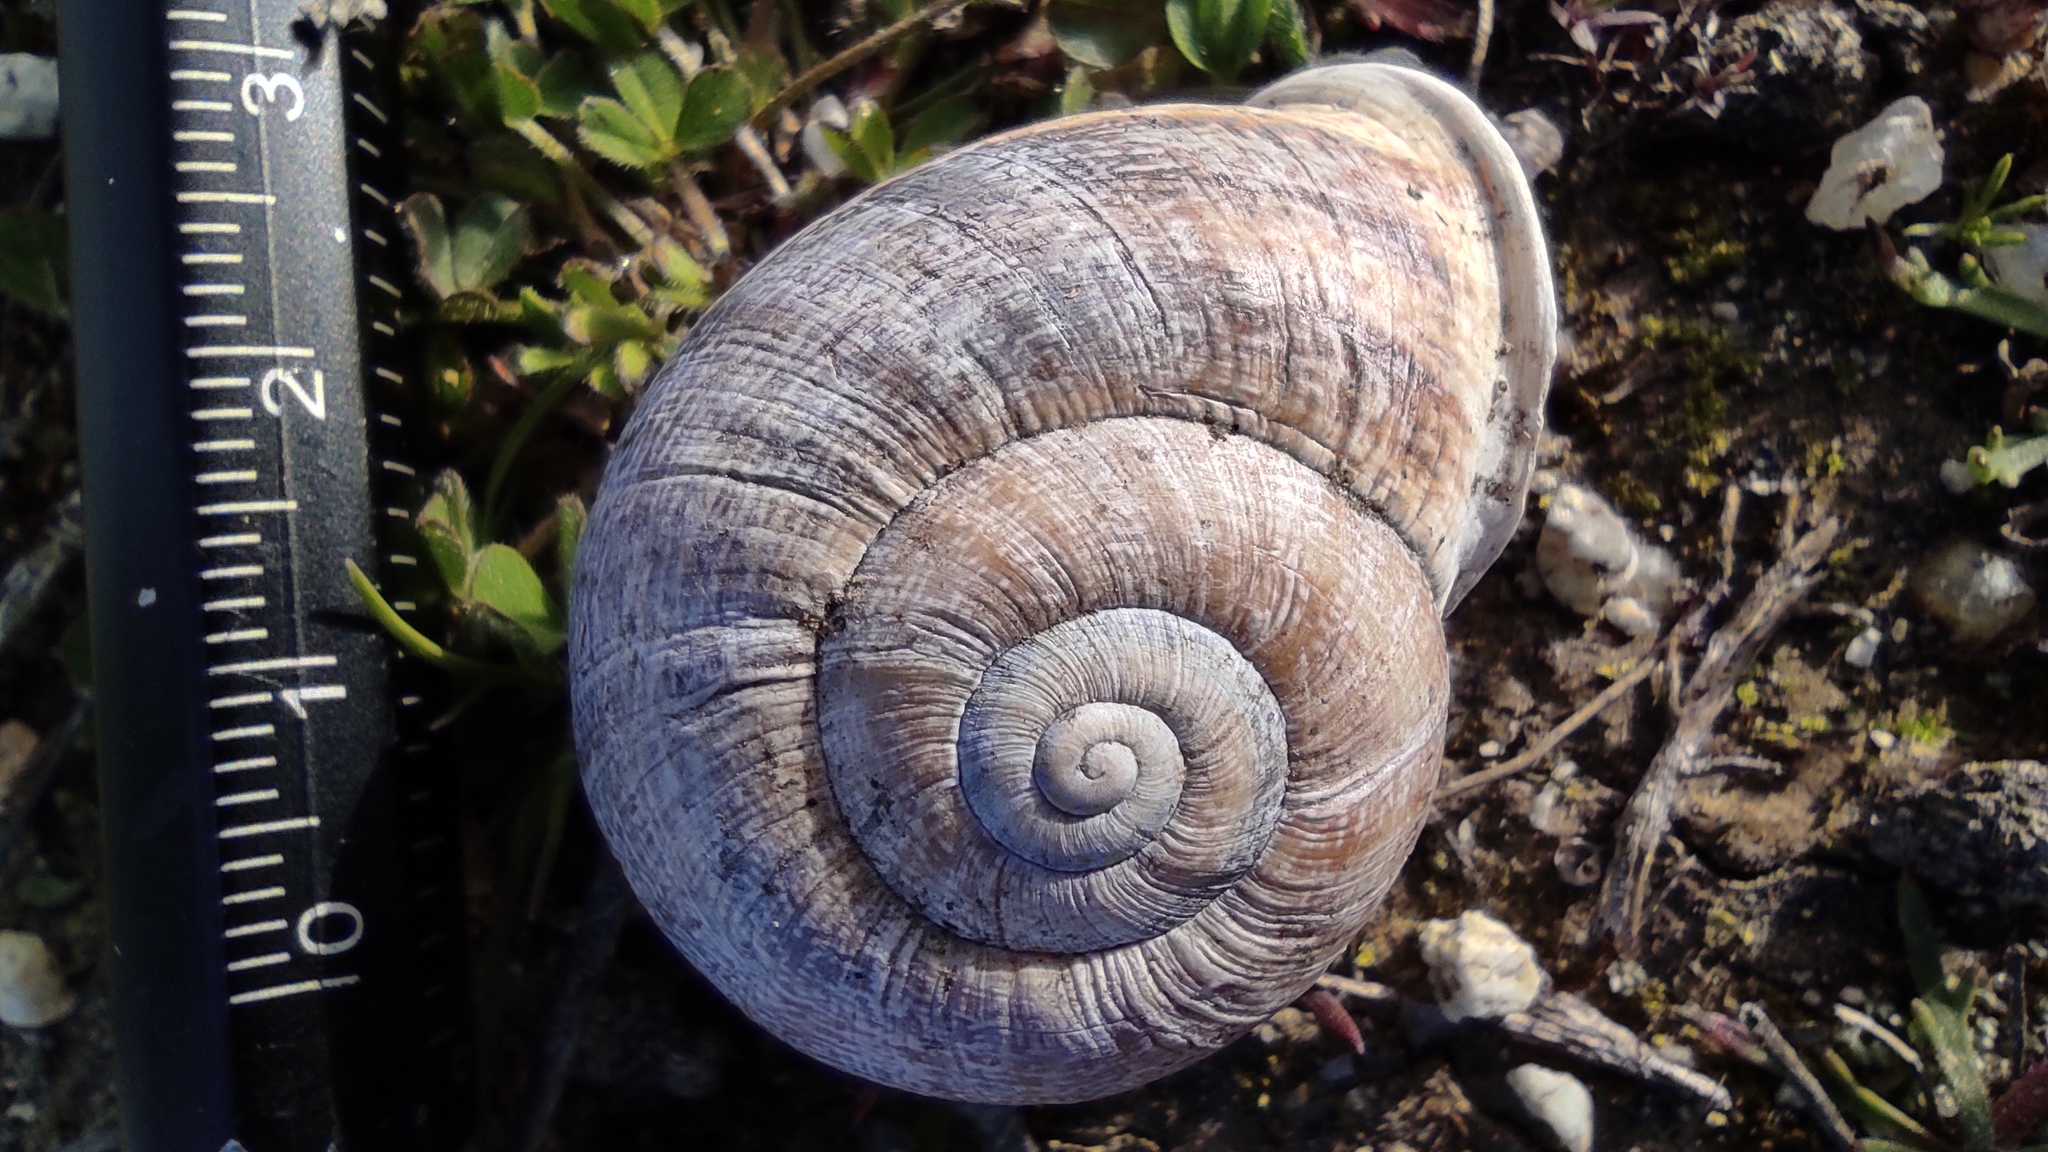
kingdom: Animalia
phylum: Mollusca
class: Gastropoda
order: Stylommatophora
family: Helicidae
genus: Otala
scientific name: Otala lactea
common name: Milk snail
